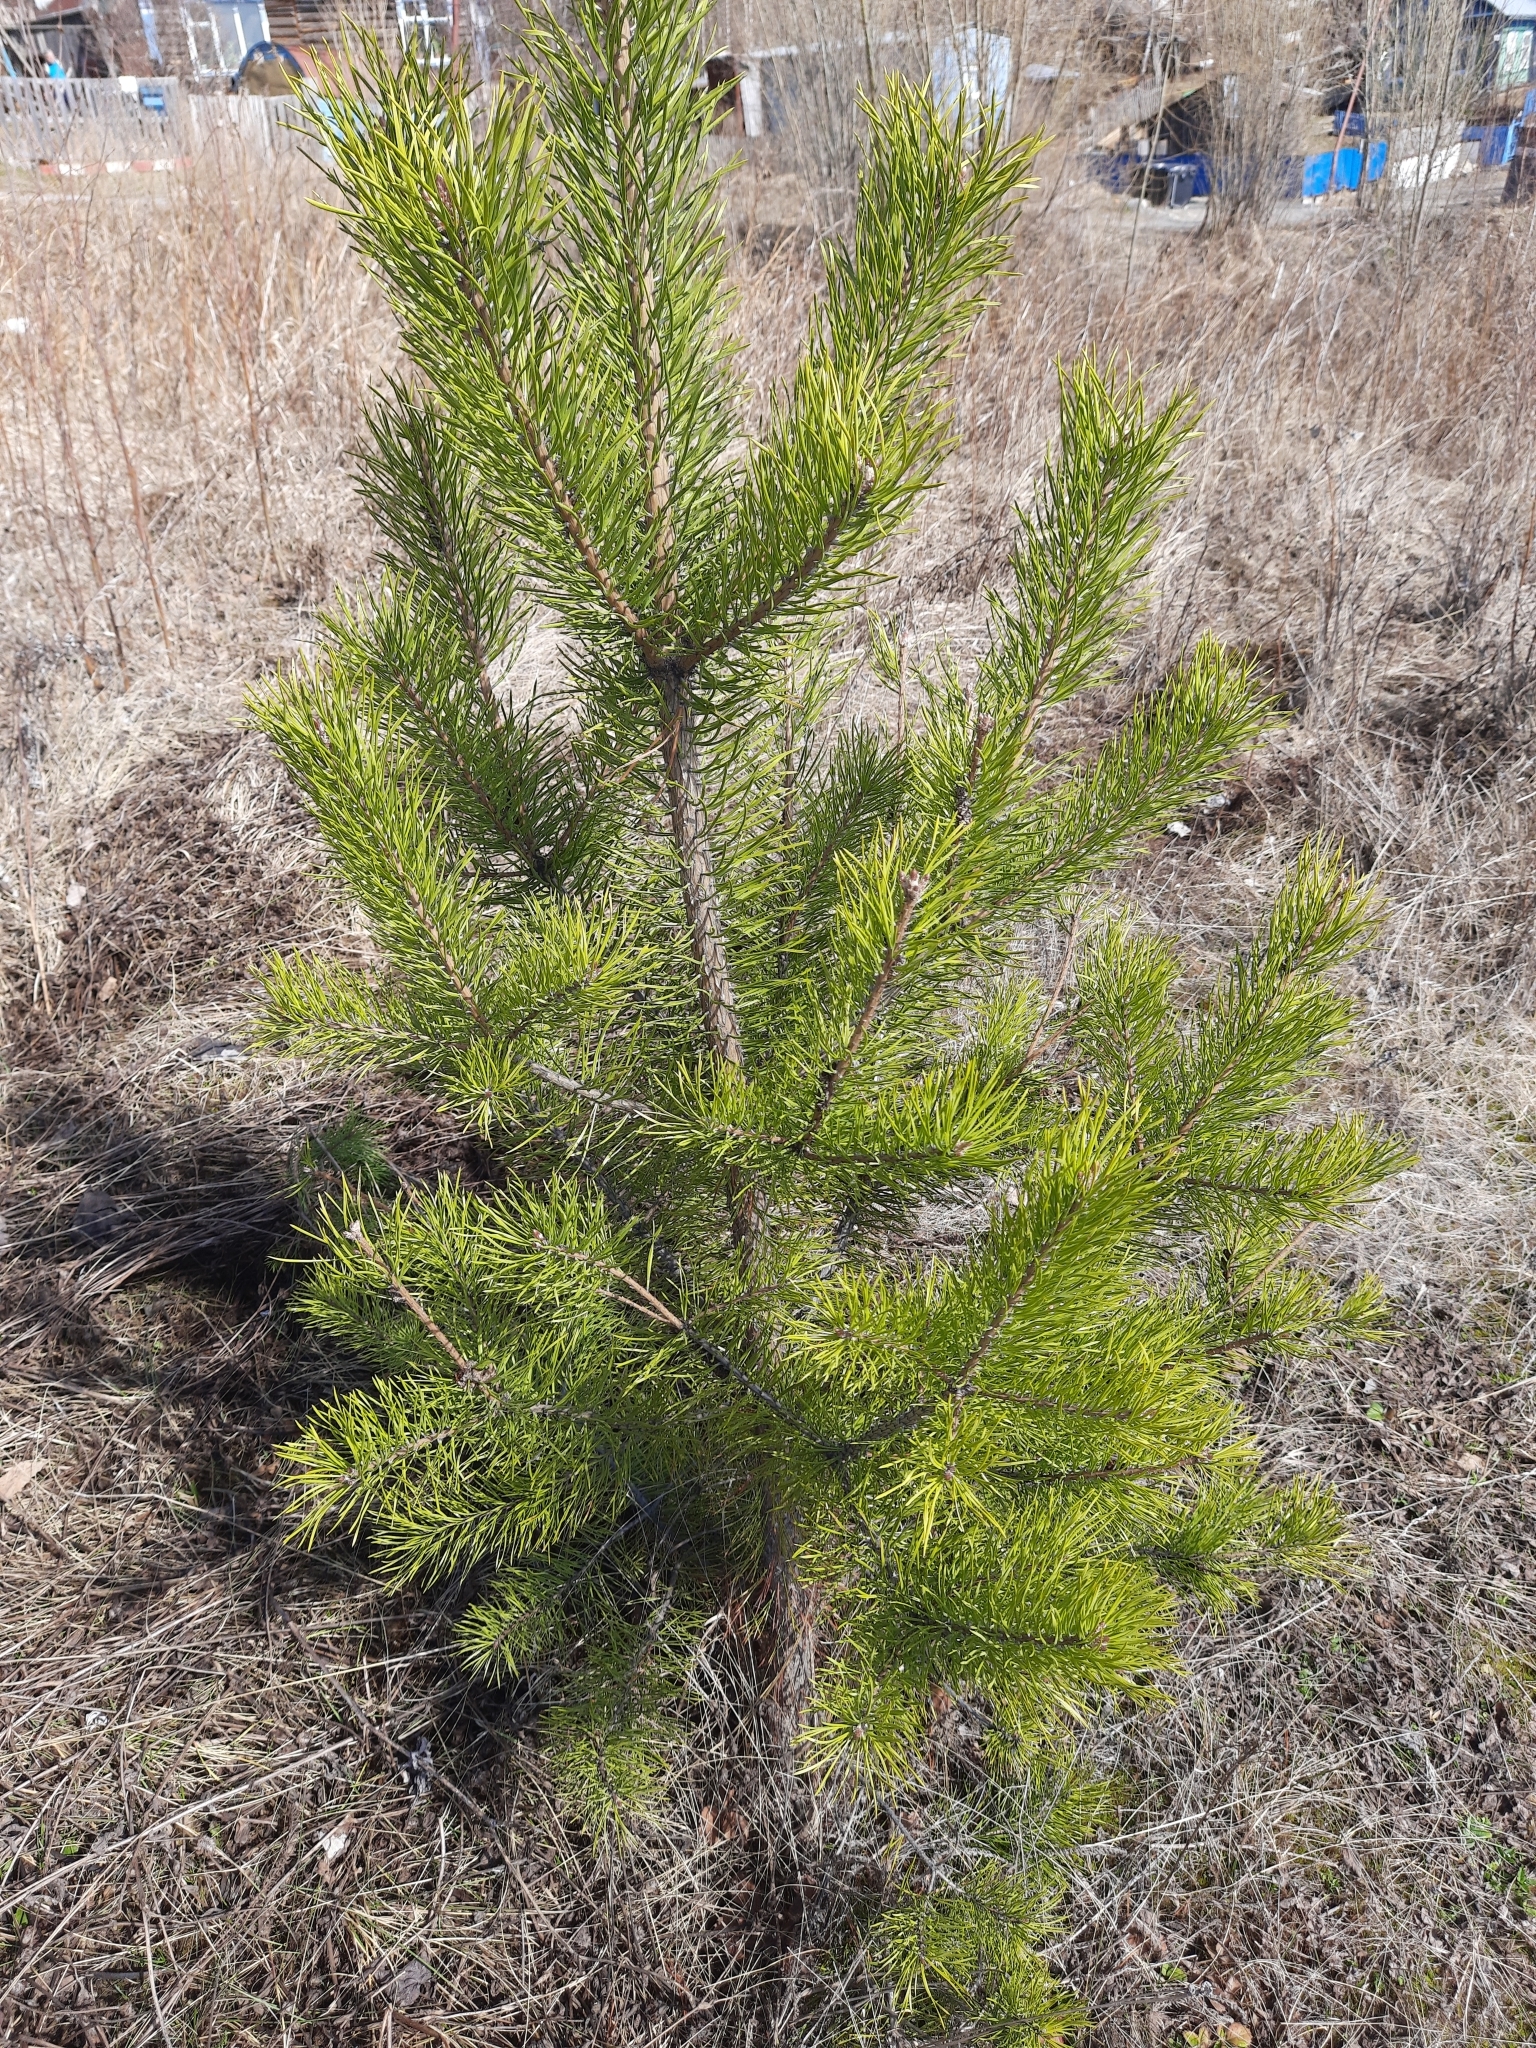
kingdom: Plantae
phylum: Tracheophyta
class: Pinopsida
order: Pinales
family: Pinaceae
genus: Pinus
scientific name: Pinus sylvestris
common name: Scots pine
